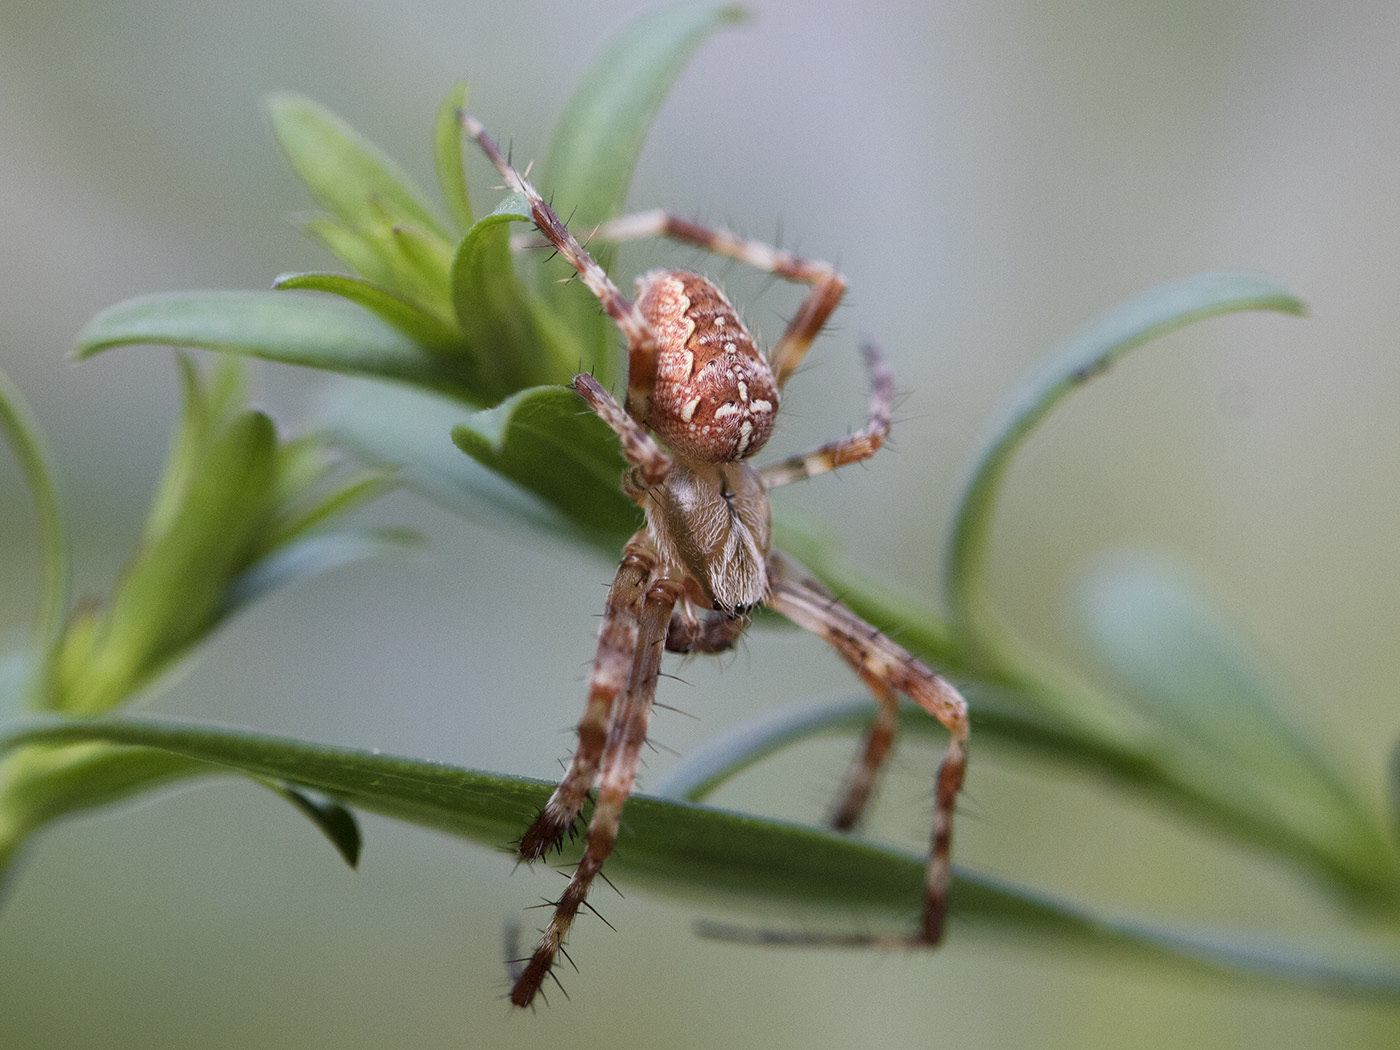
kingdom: Animalia
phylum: Arthropoda
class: Arachnida
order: Araneae
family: Araneidae
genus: Araneus
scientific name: Araneus diadematus
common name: Cross orbweaver
